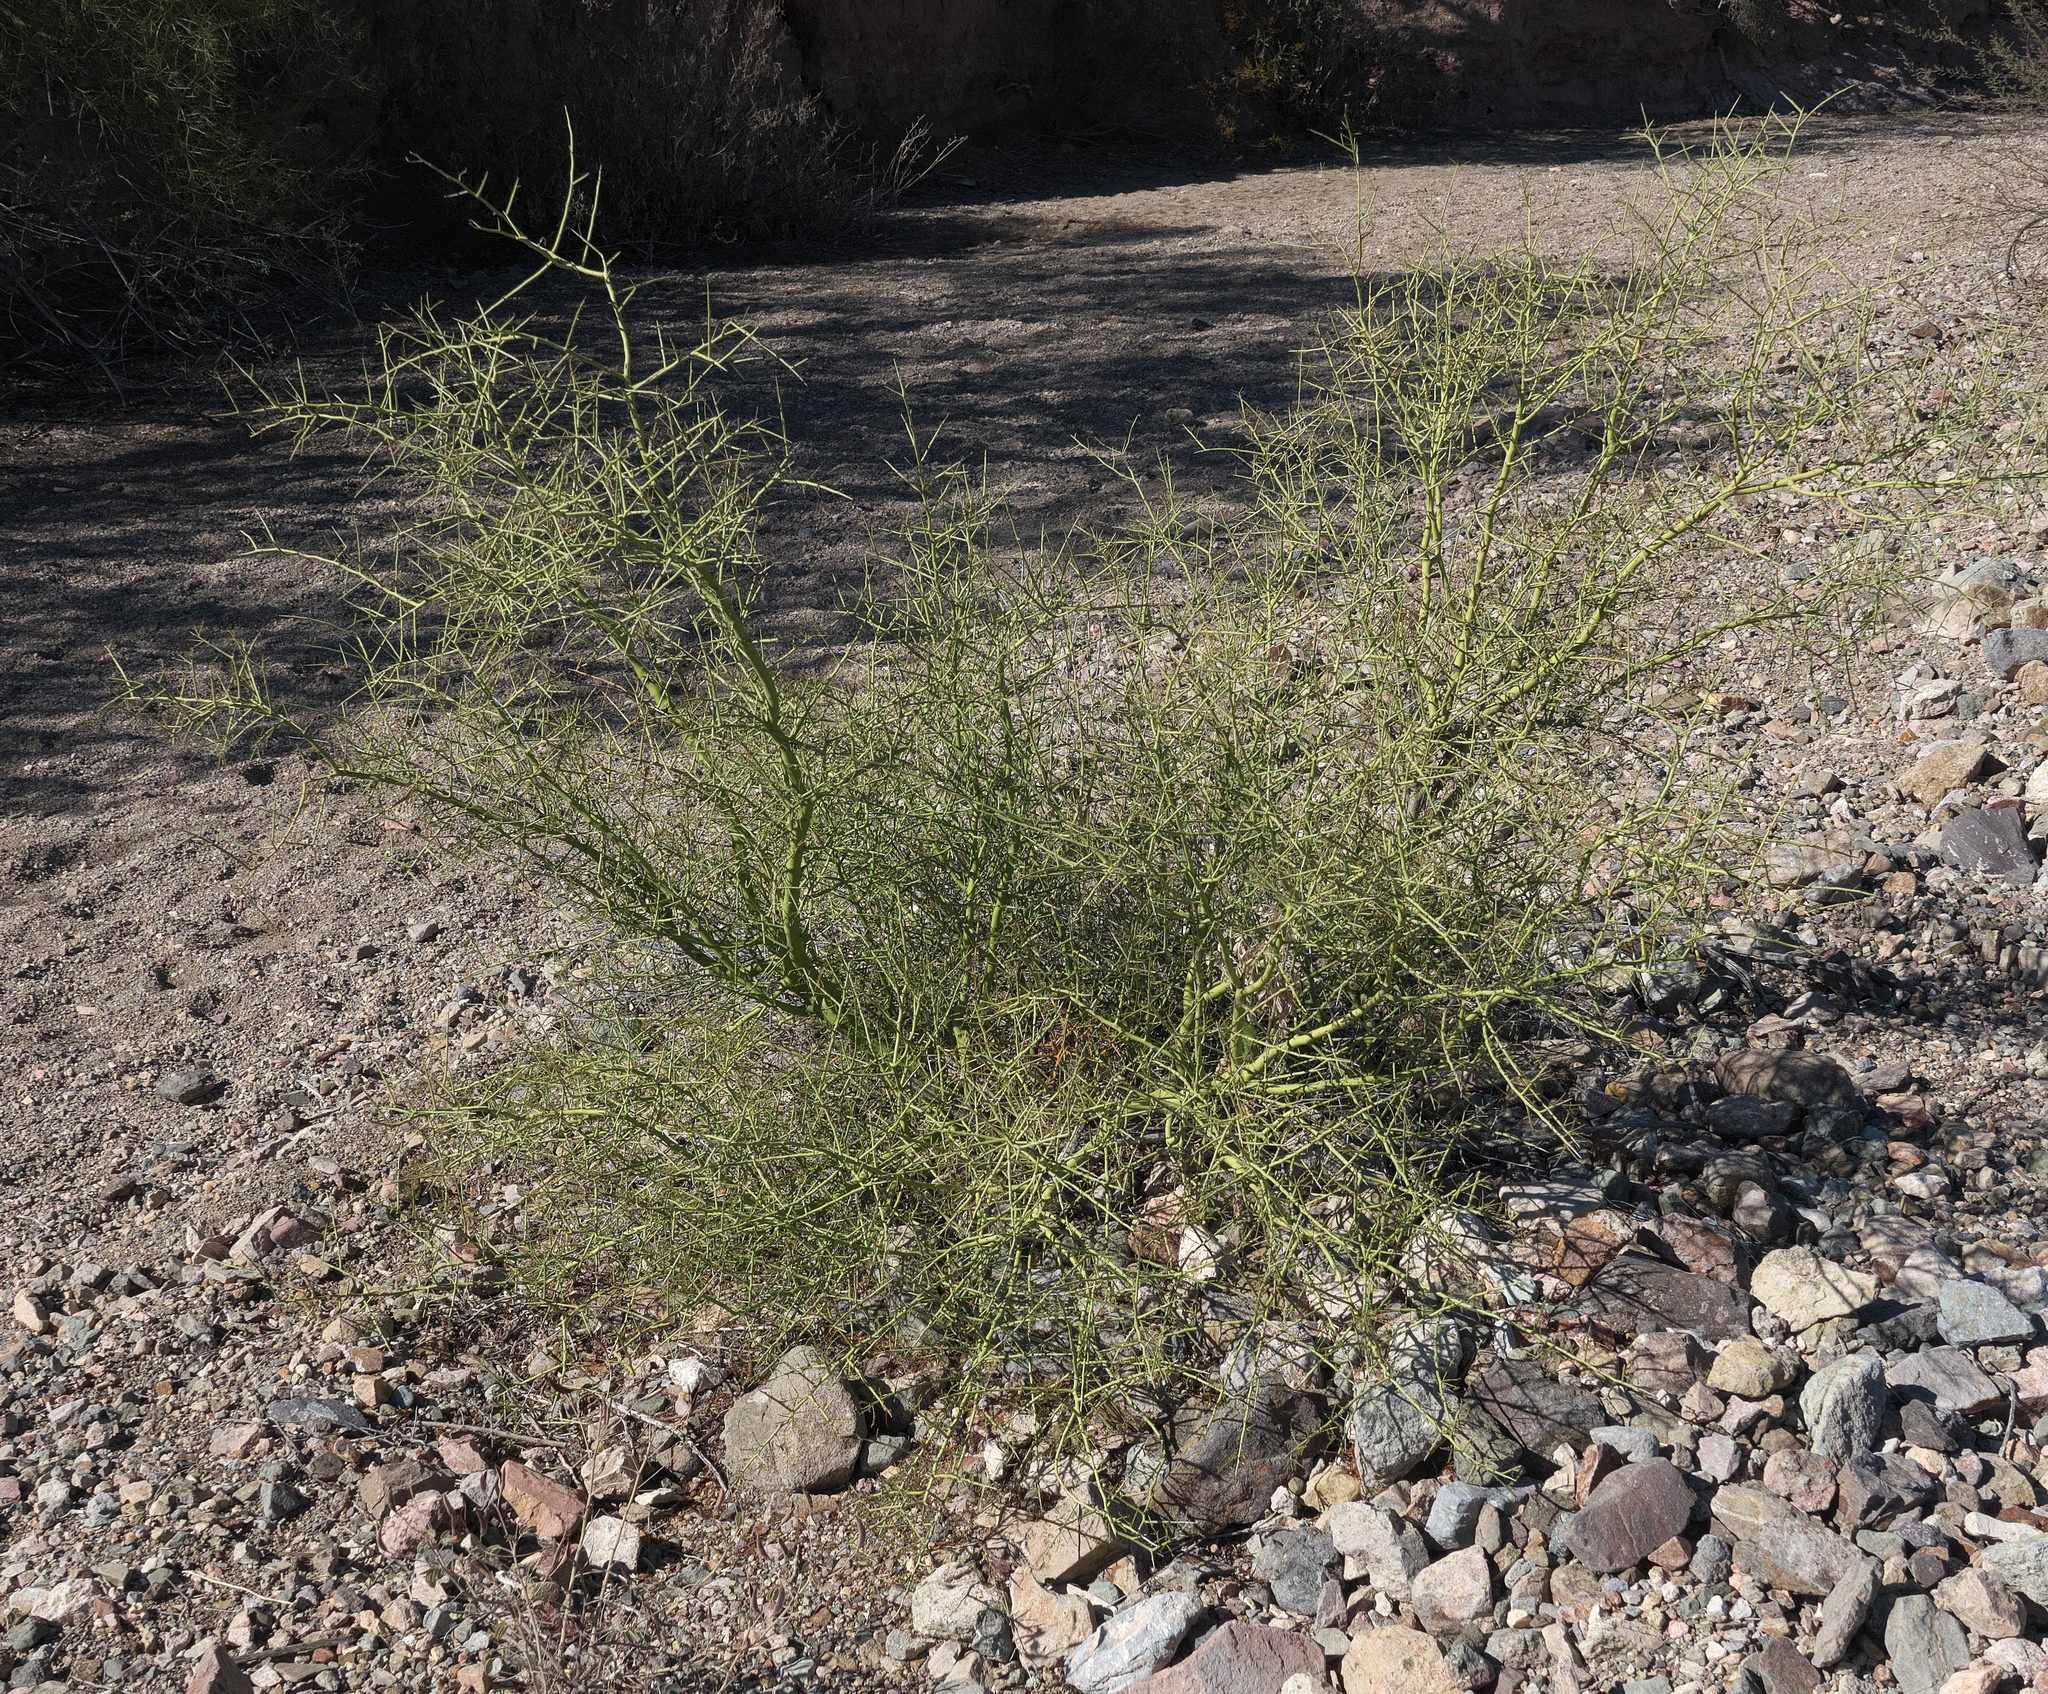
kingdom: Plantae
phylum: Tracheophyta
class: Magnoliopsida
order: Fabales
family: Fabaceae
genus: Parkinsonia
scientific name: Parkinsonia microphylla
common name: Yellow paloverde
